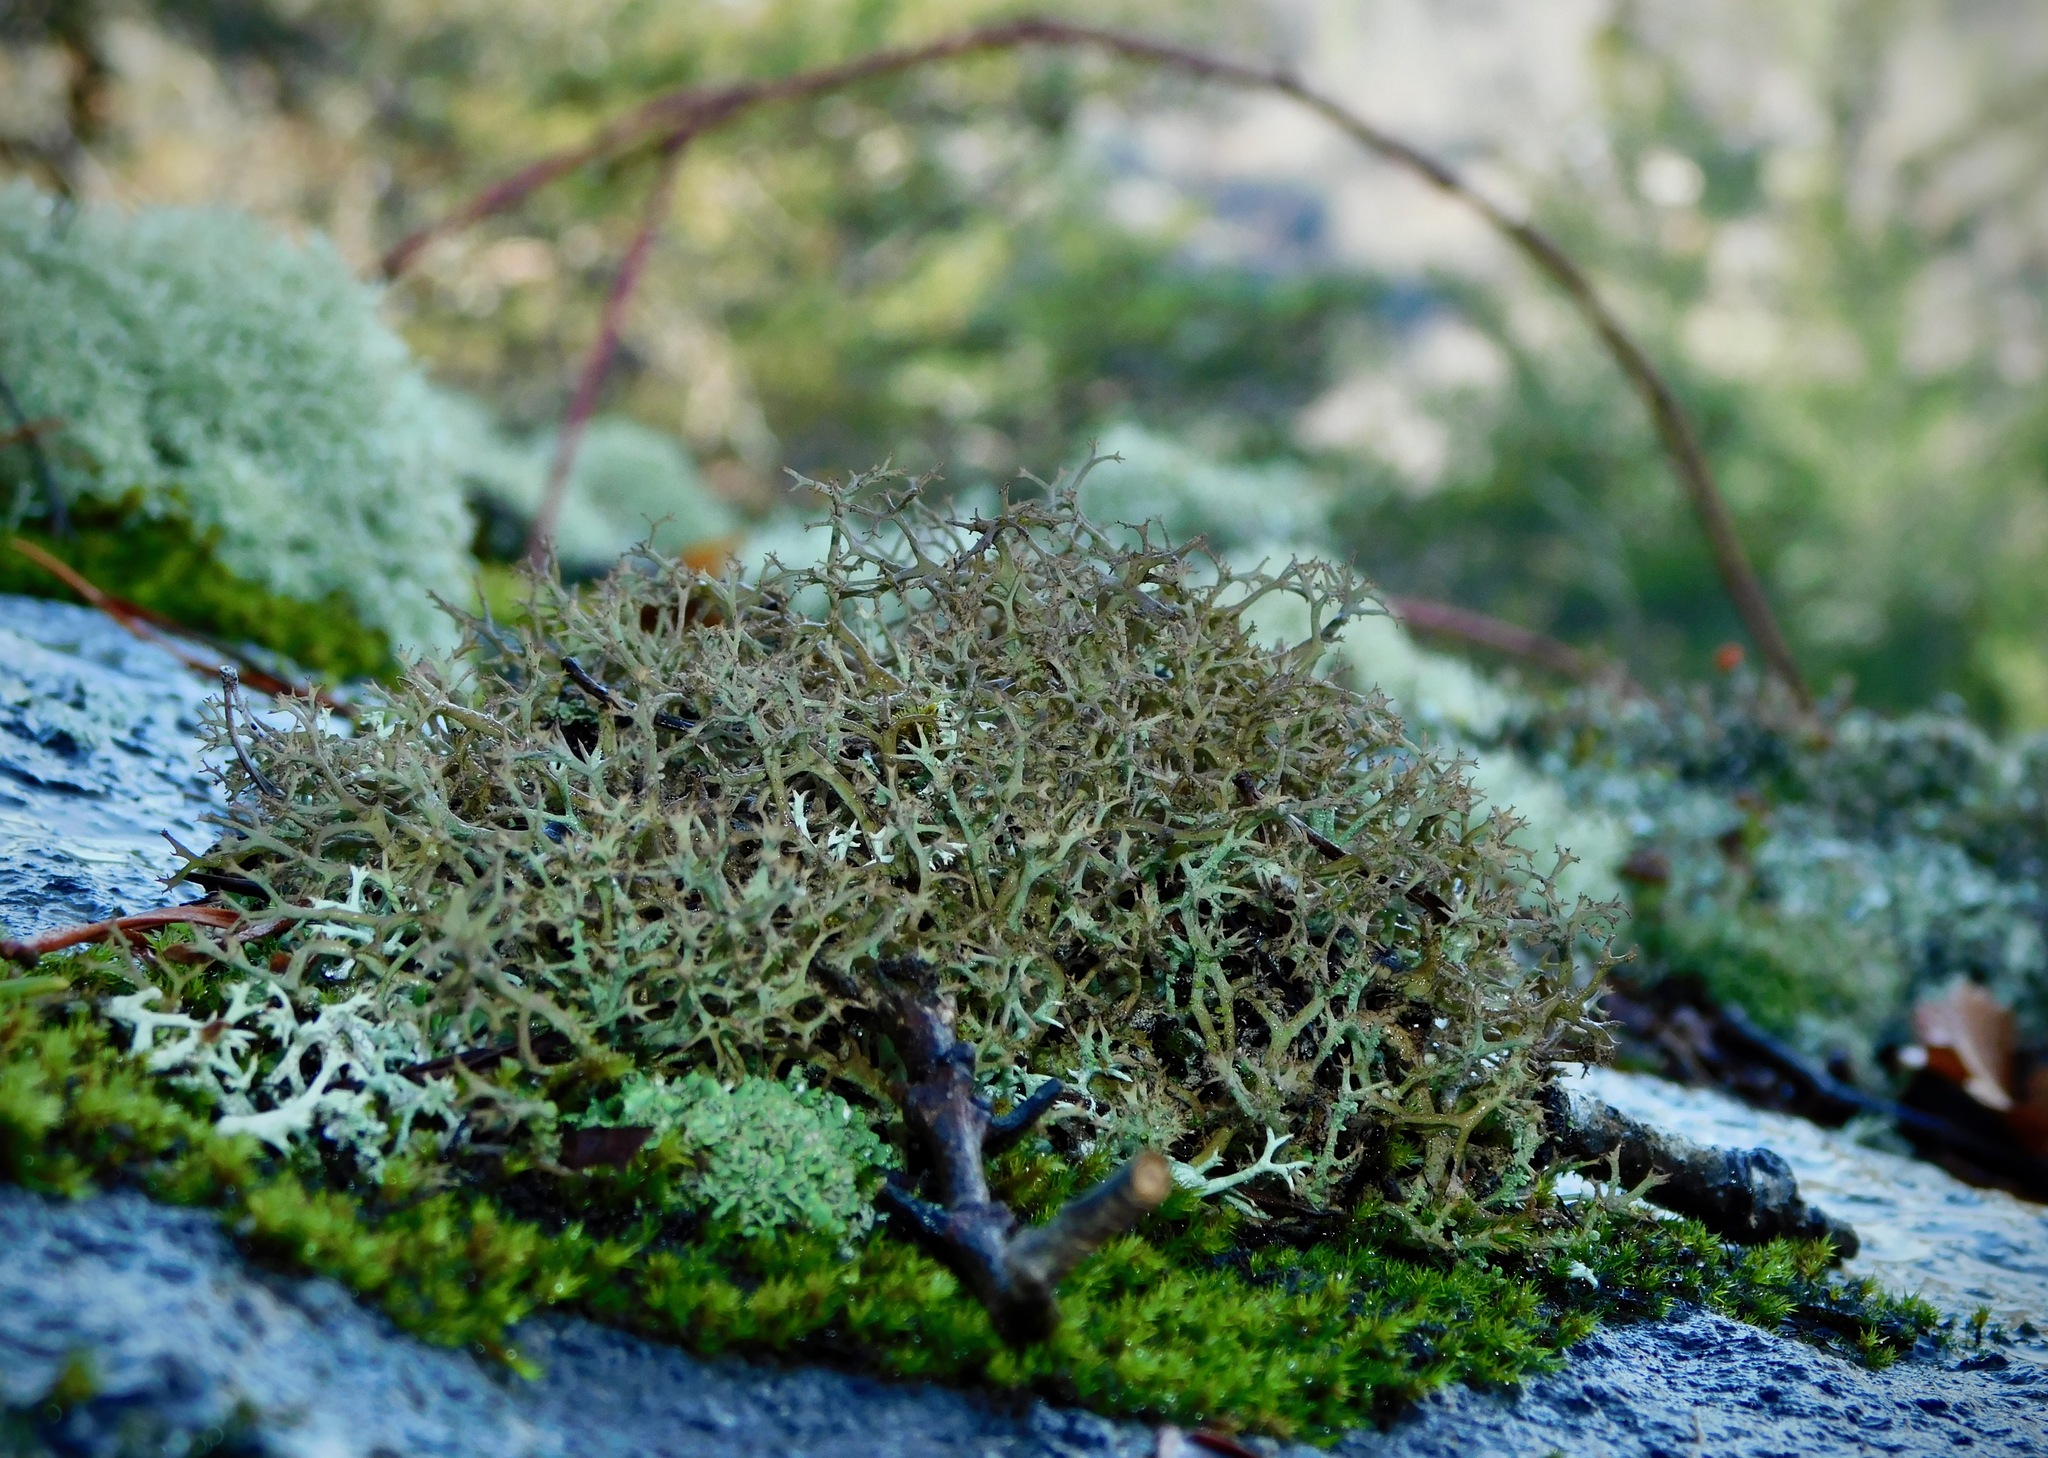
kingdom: Fungi
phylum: Ascomycota
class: Lecanoromycetes
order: Lecanorales
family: Cladoniaceae
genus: Cladonia
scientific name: Cladonia appalachensis
